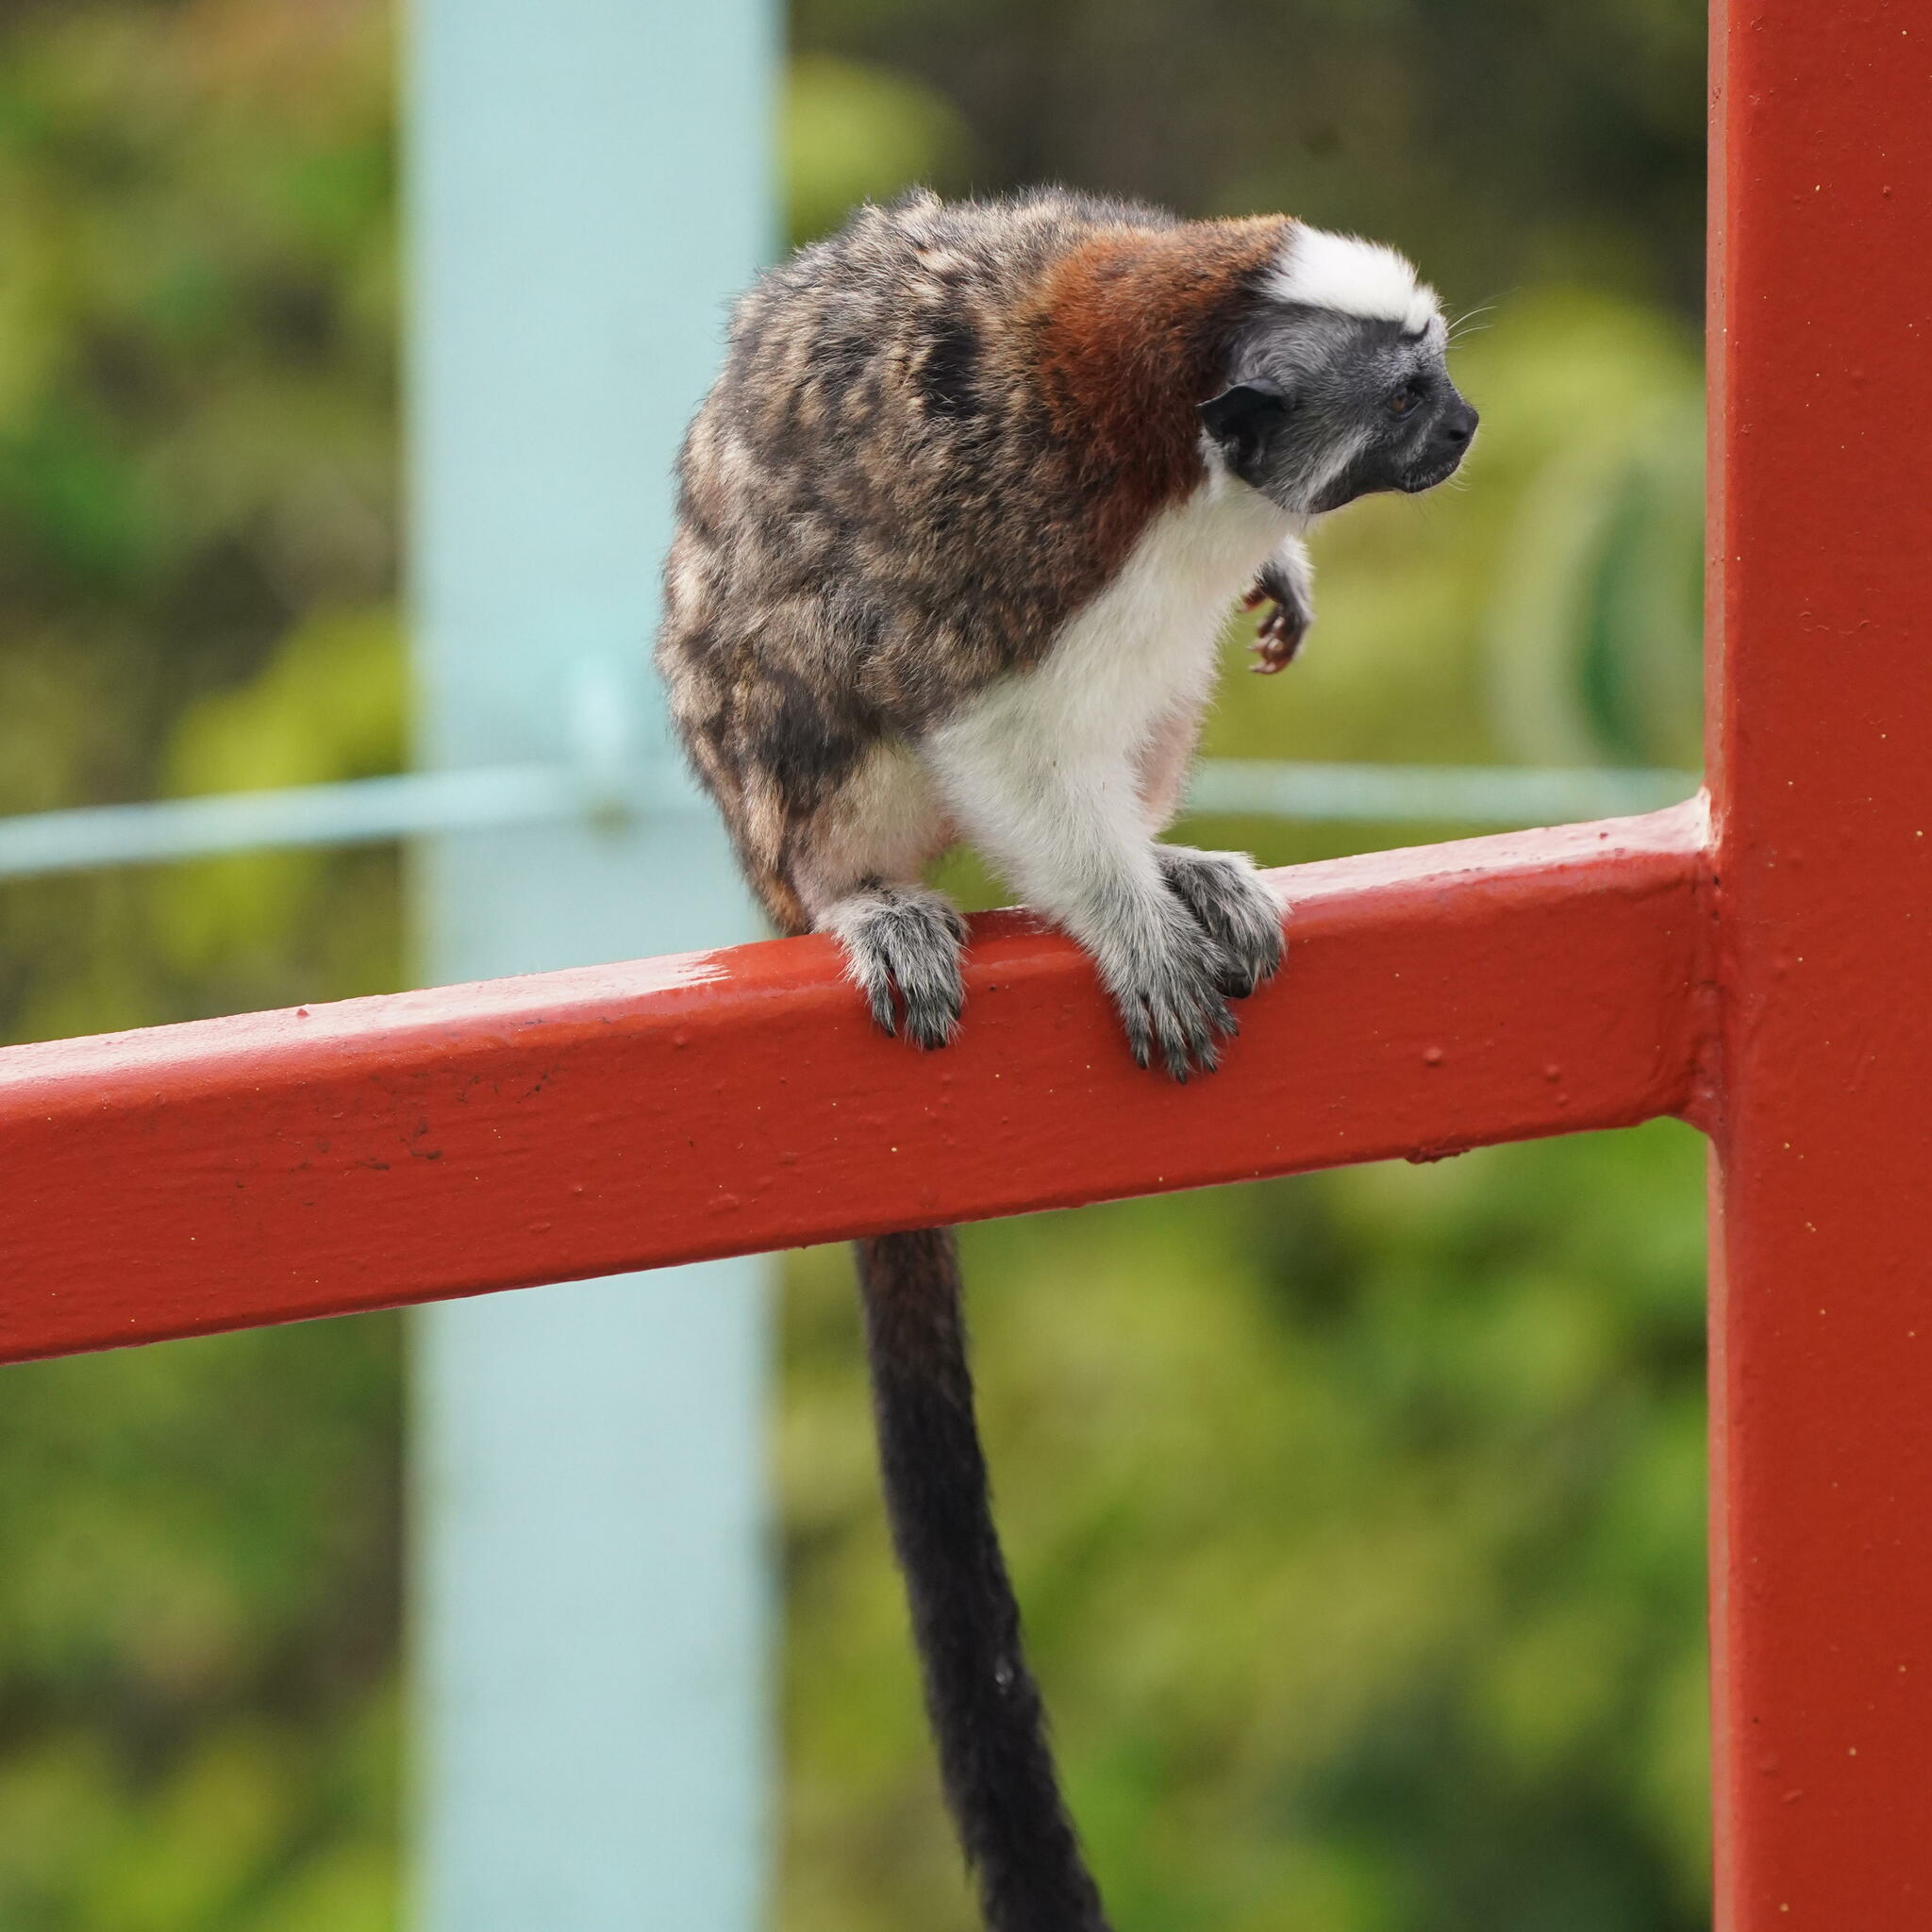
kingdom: Animalia
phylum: Chordata
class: Mammalia
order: Primates
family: Callitrichidae
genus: Saguinus
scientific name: Saguinus geoffroyi
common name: Geoffroy s tamarin
